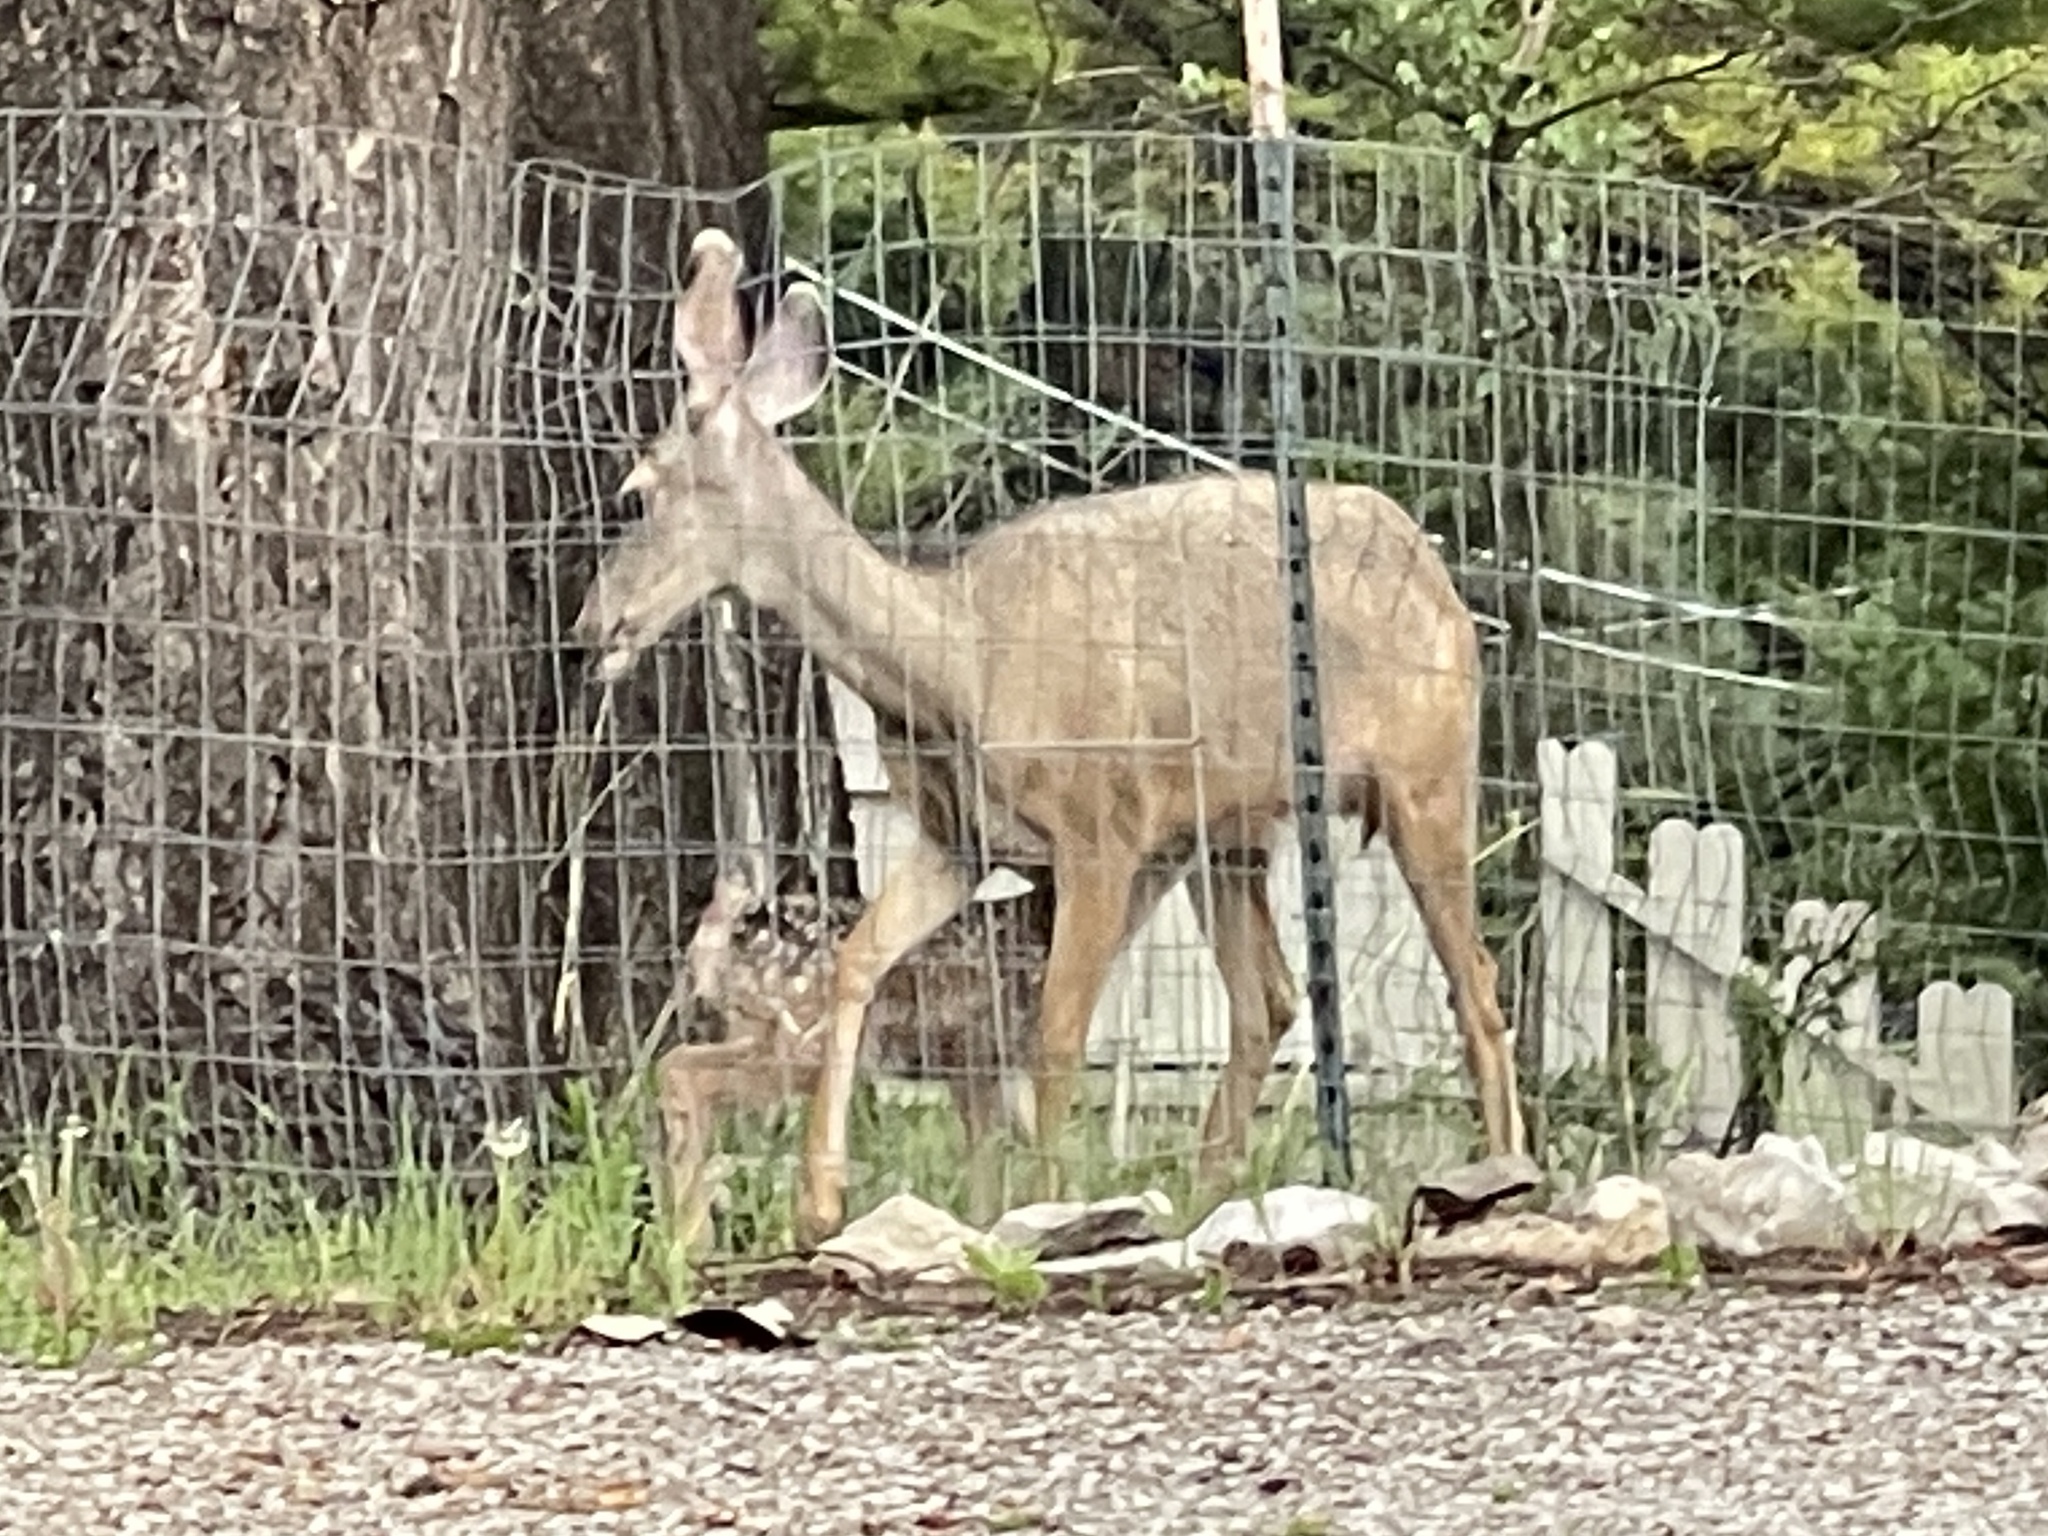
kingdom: Animalia
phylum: Chordata
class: Mammalia
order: Artiodactyla
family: Cervidae
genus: Odocoileus
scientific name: Odocoileus hemionus
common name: Mule deer
